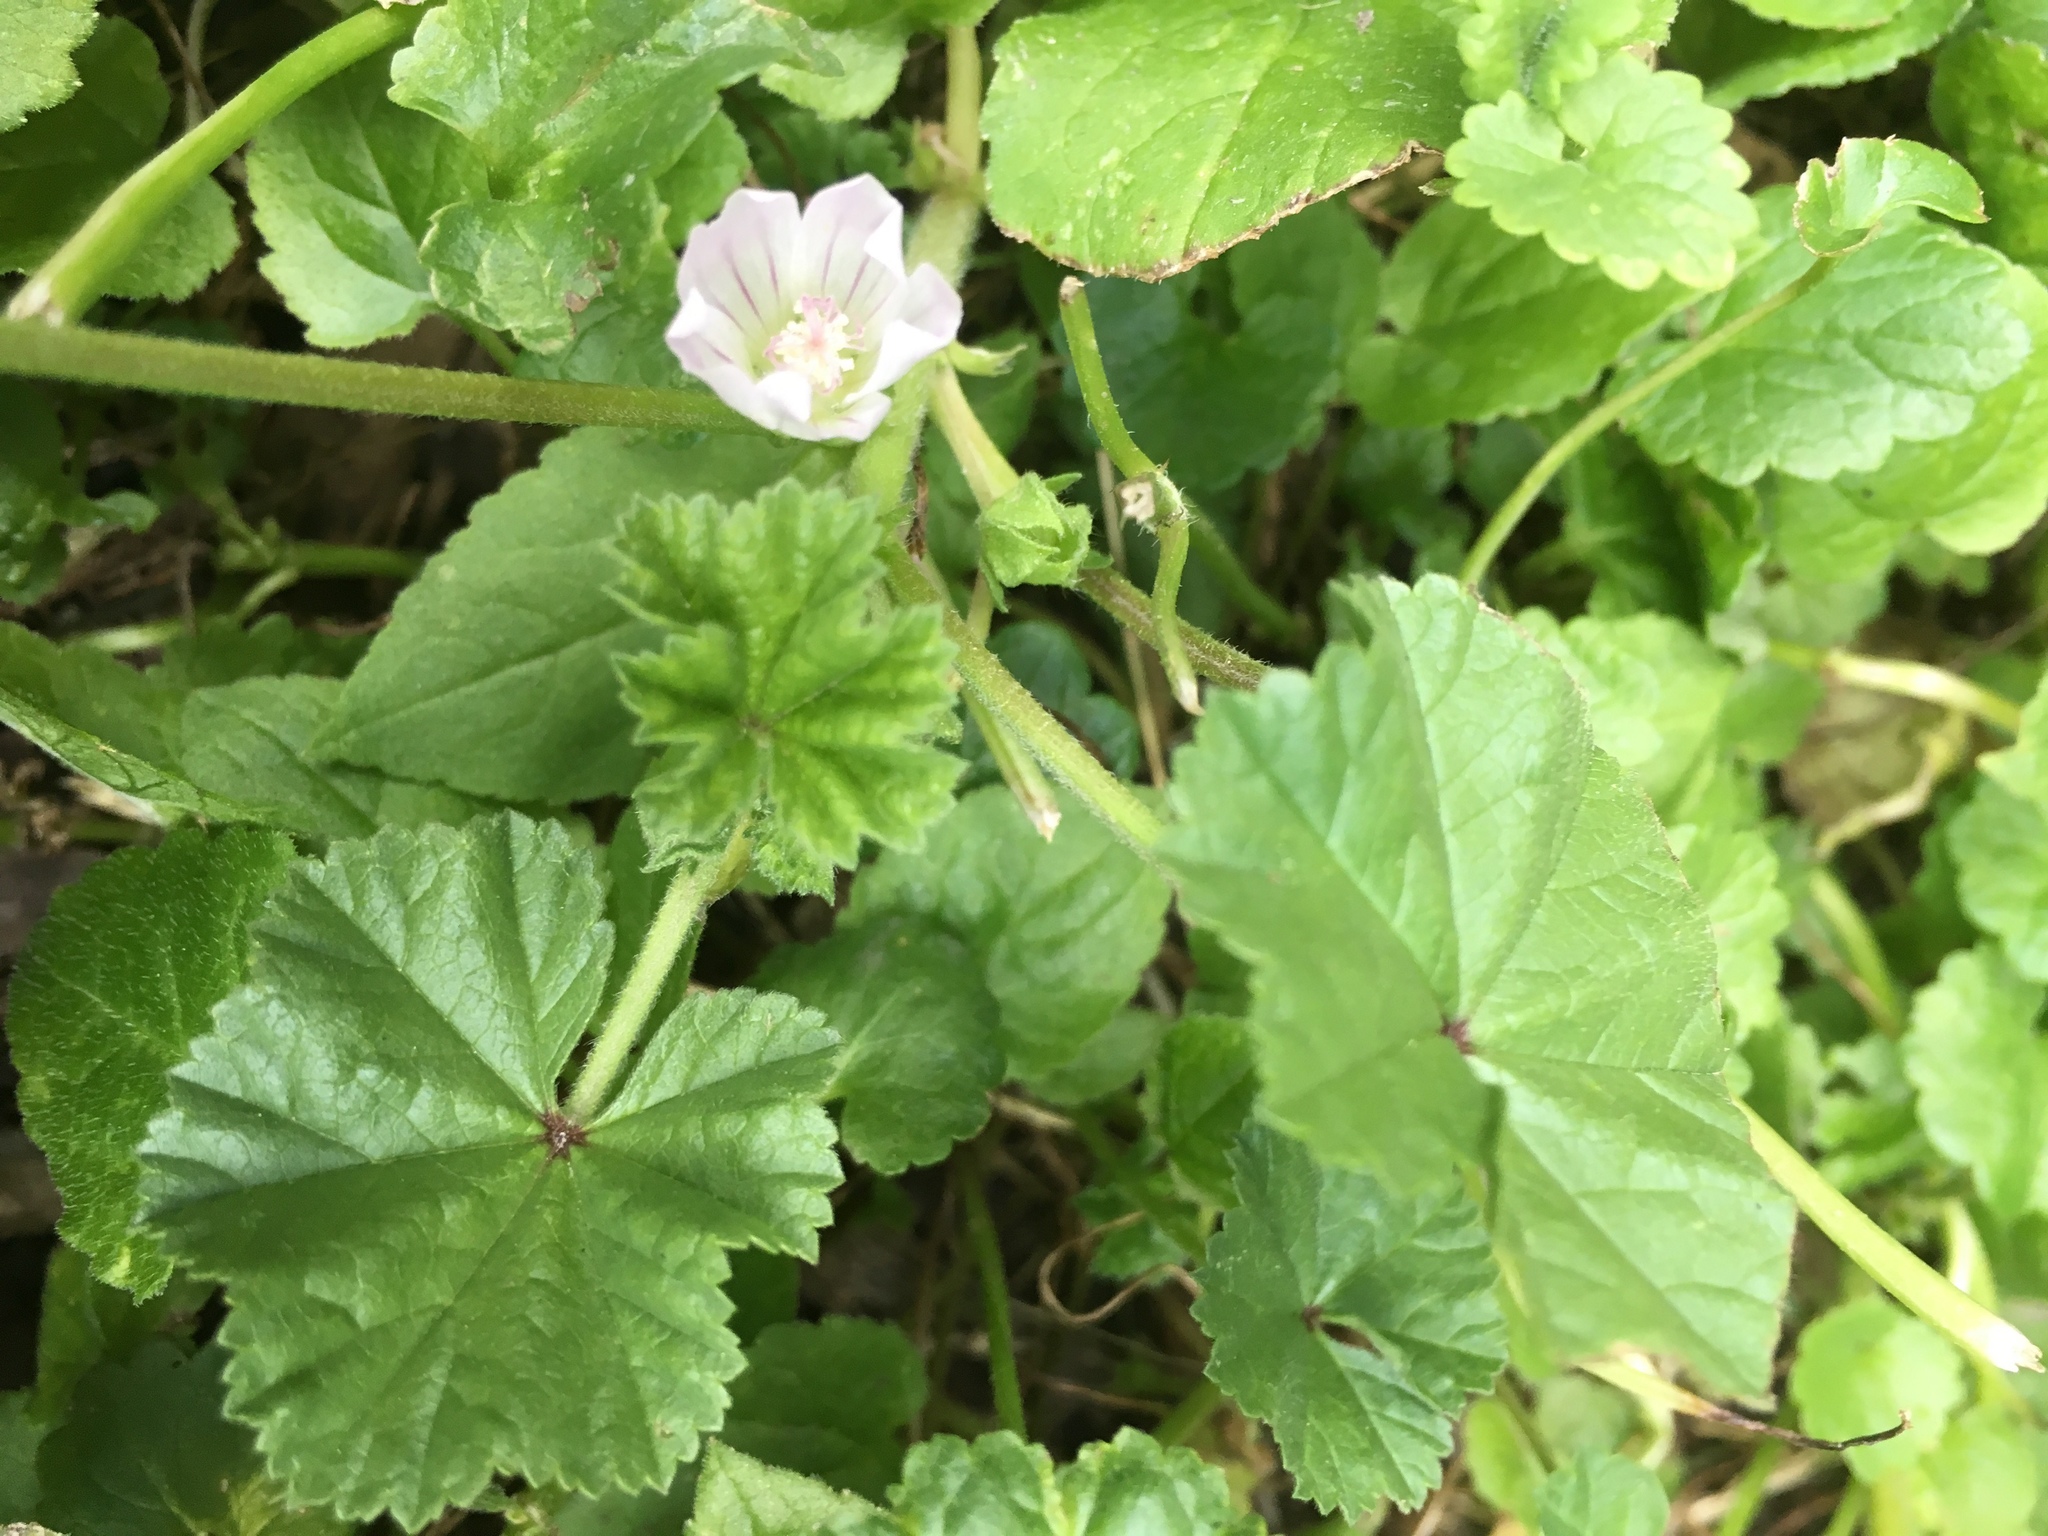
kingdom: Plantae
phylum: Tracheophyta
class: Magnoliopsida
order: Malvales
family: Malvaceae
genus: Malva
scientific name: Malva neglecta
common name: Common mallow
